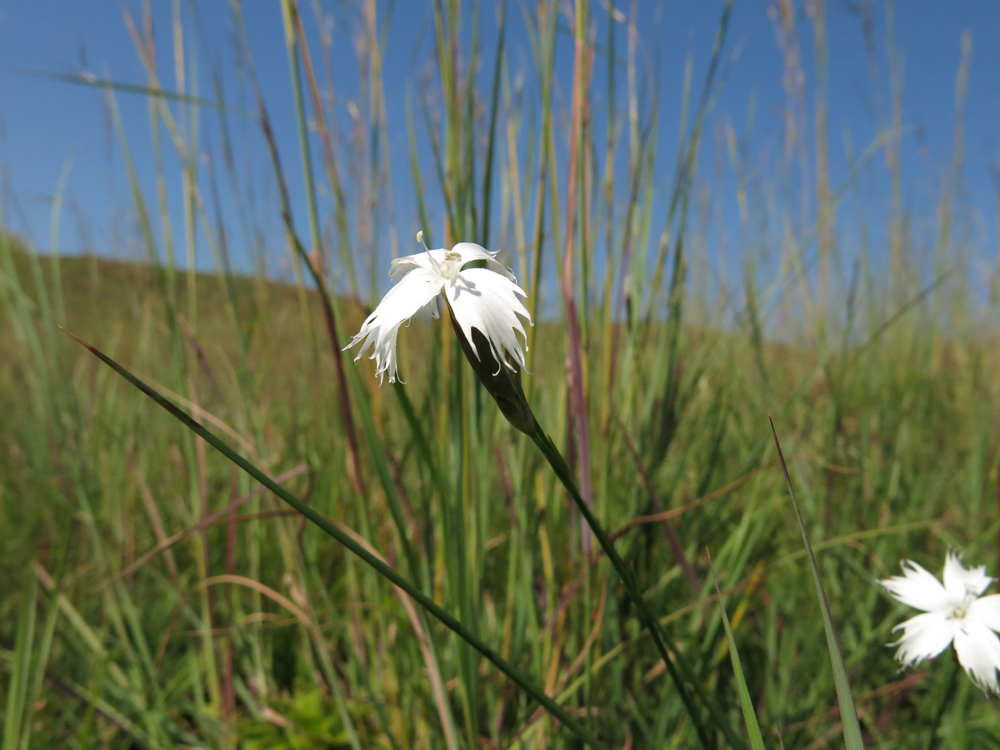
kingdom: Plantae
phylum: Tracheophyta
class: Magnoliopsida
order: Caryophyllales
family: Caryophyllaceae
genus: Dianthus
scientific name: Dianthus moviensis
